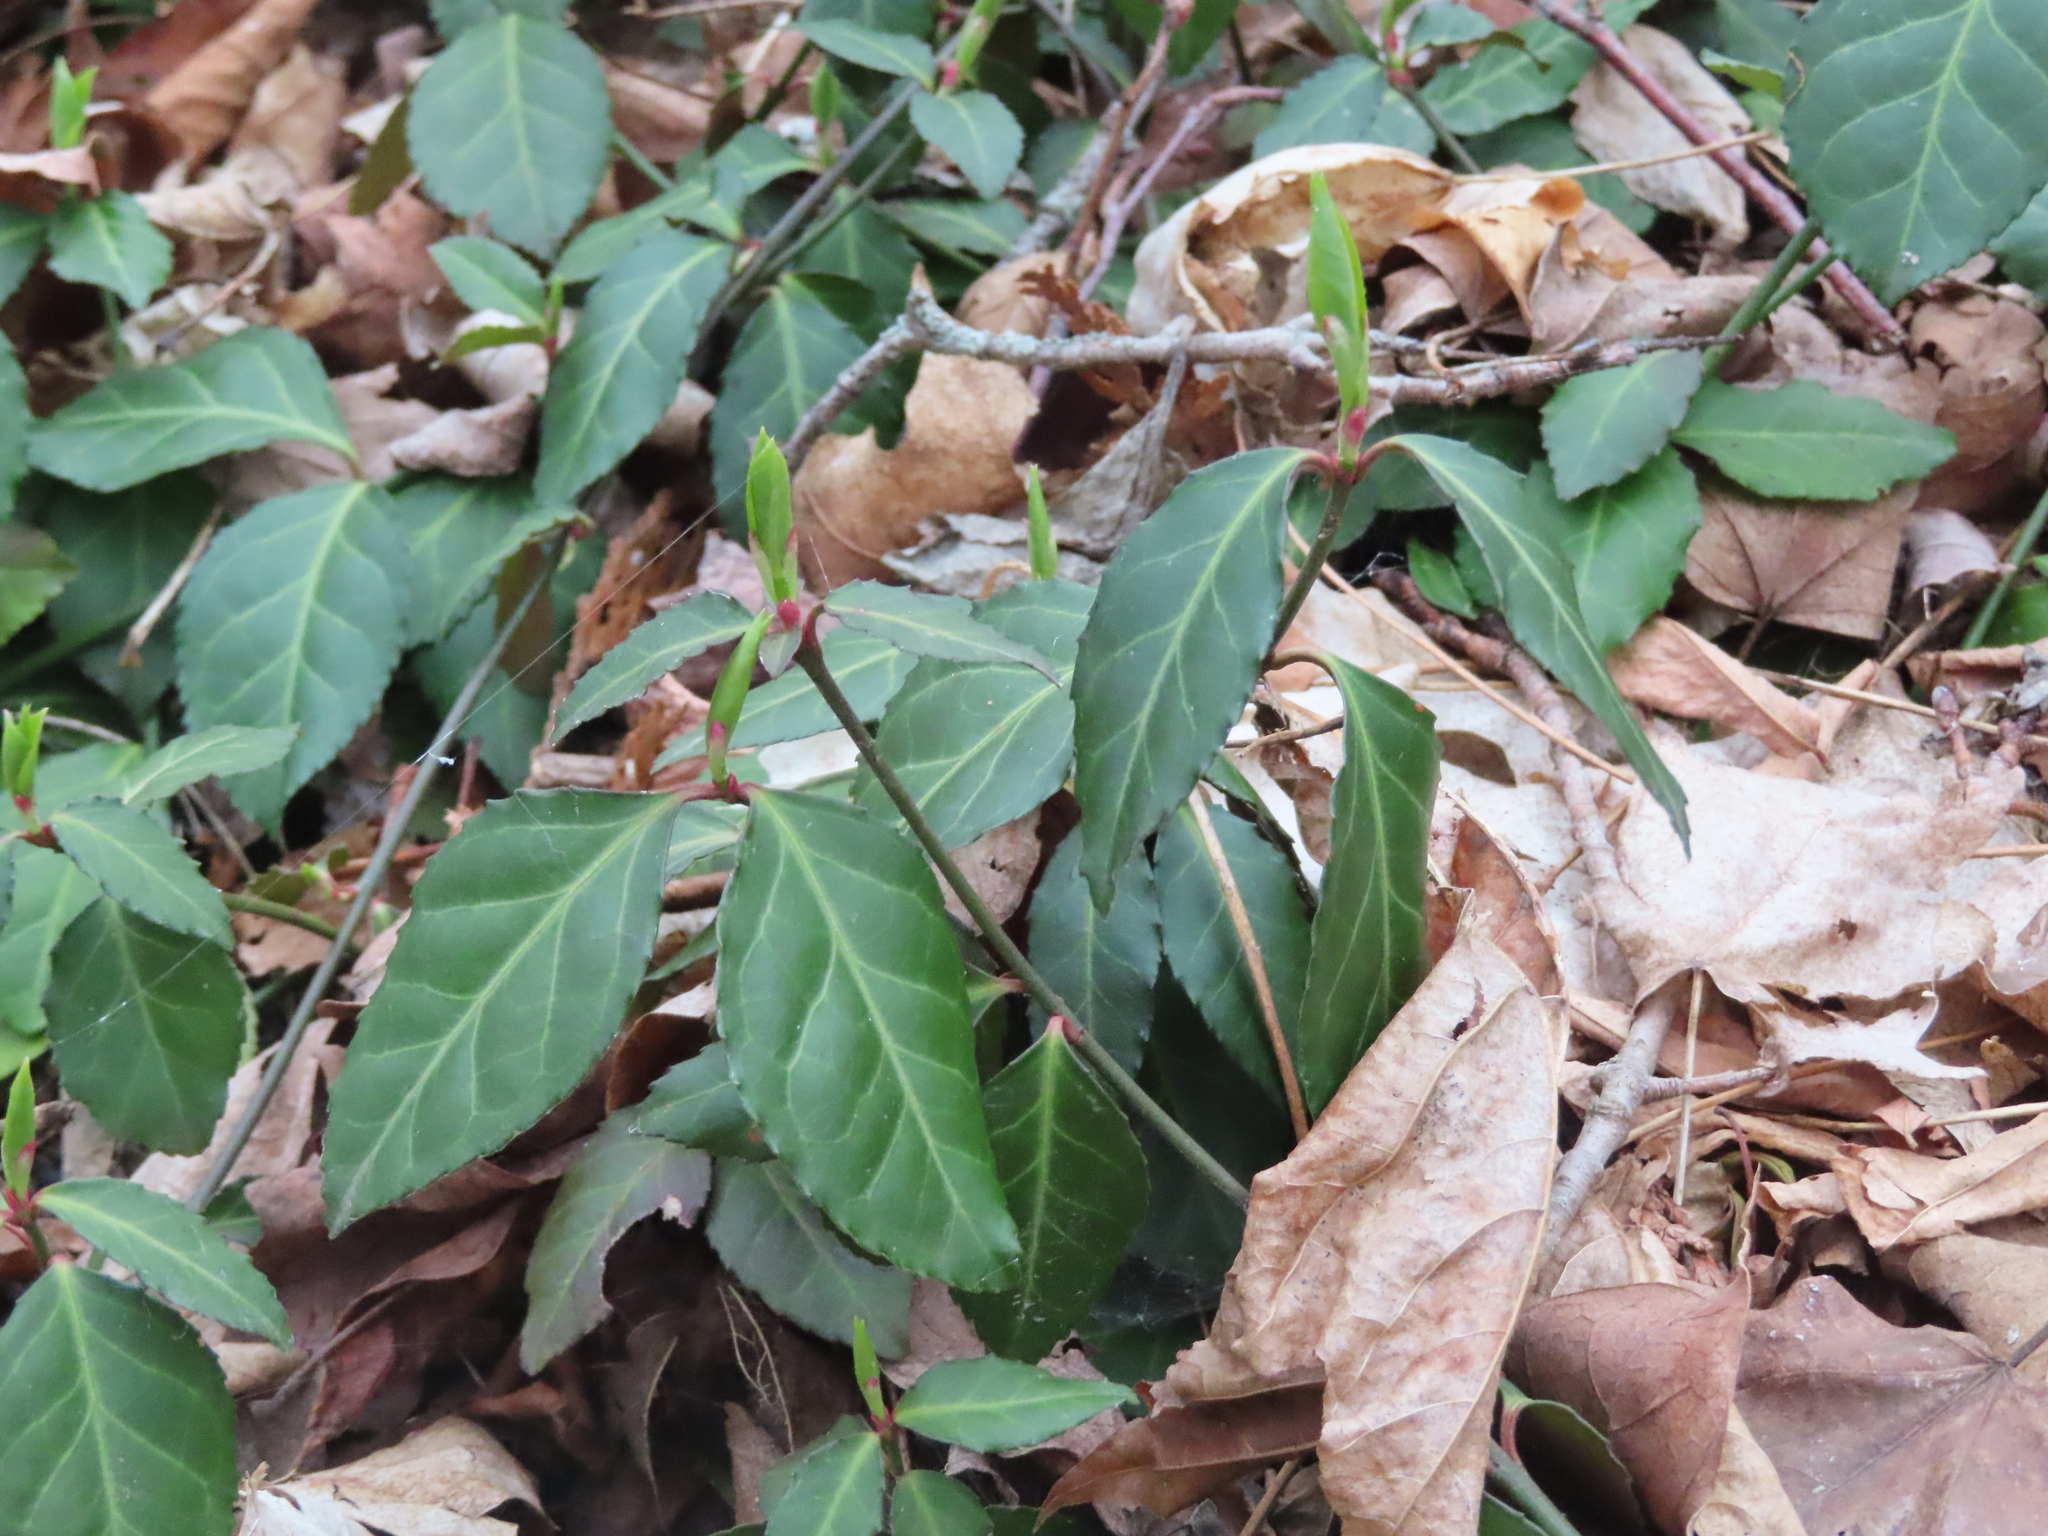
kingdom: Plantae
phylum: Tracheophyta
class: Magnoliopsida
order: Celastrales
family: Celastraceae
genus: Euonymus
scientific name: Euonymus fortunei
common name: Climbing euonymus
